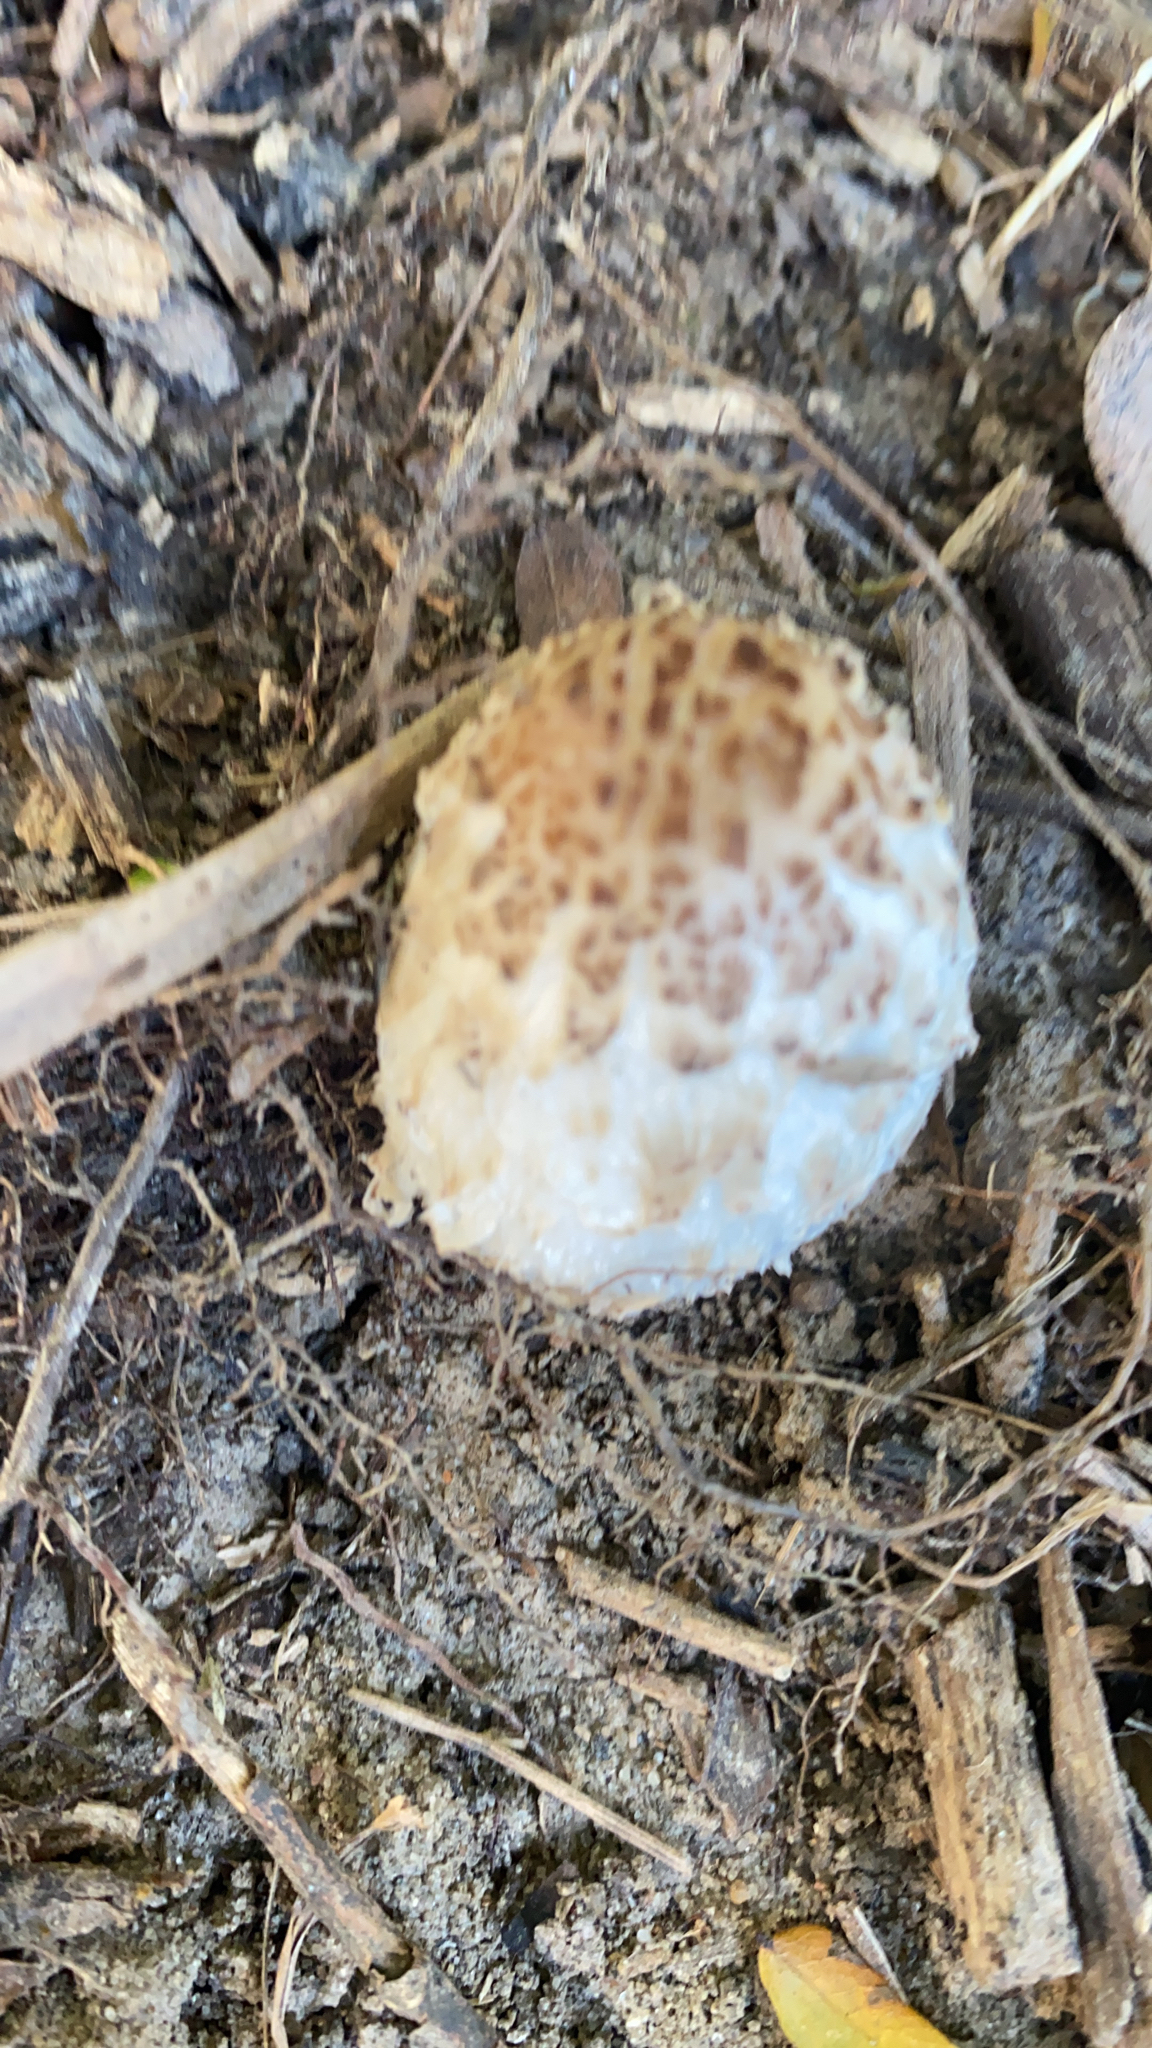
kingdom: Fungi
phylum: Basidiomycota
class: Agaricomycetes
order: Agaricales
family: Agaricaceae
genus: Coprinus
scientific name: Coprinus comatus
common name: Lawyer's wig
